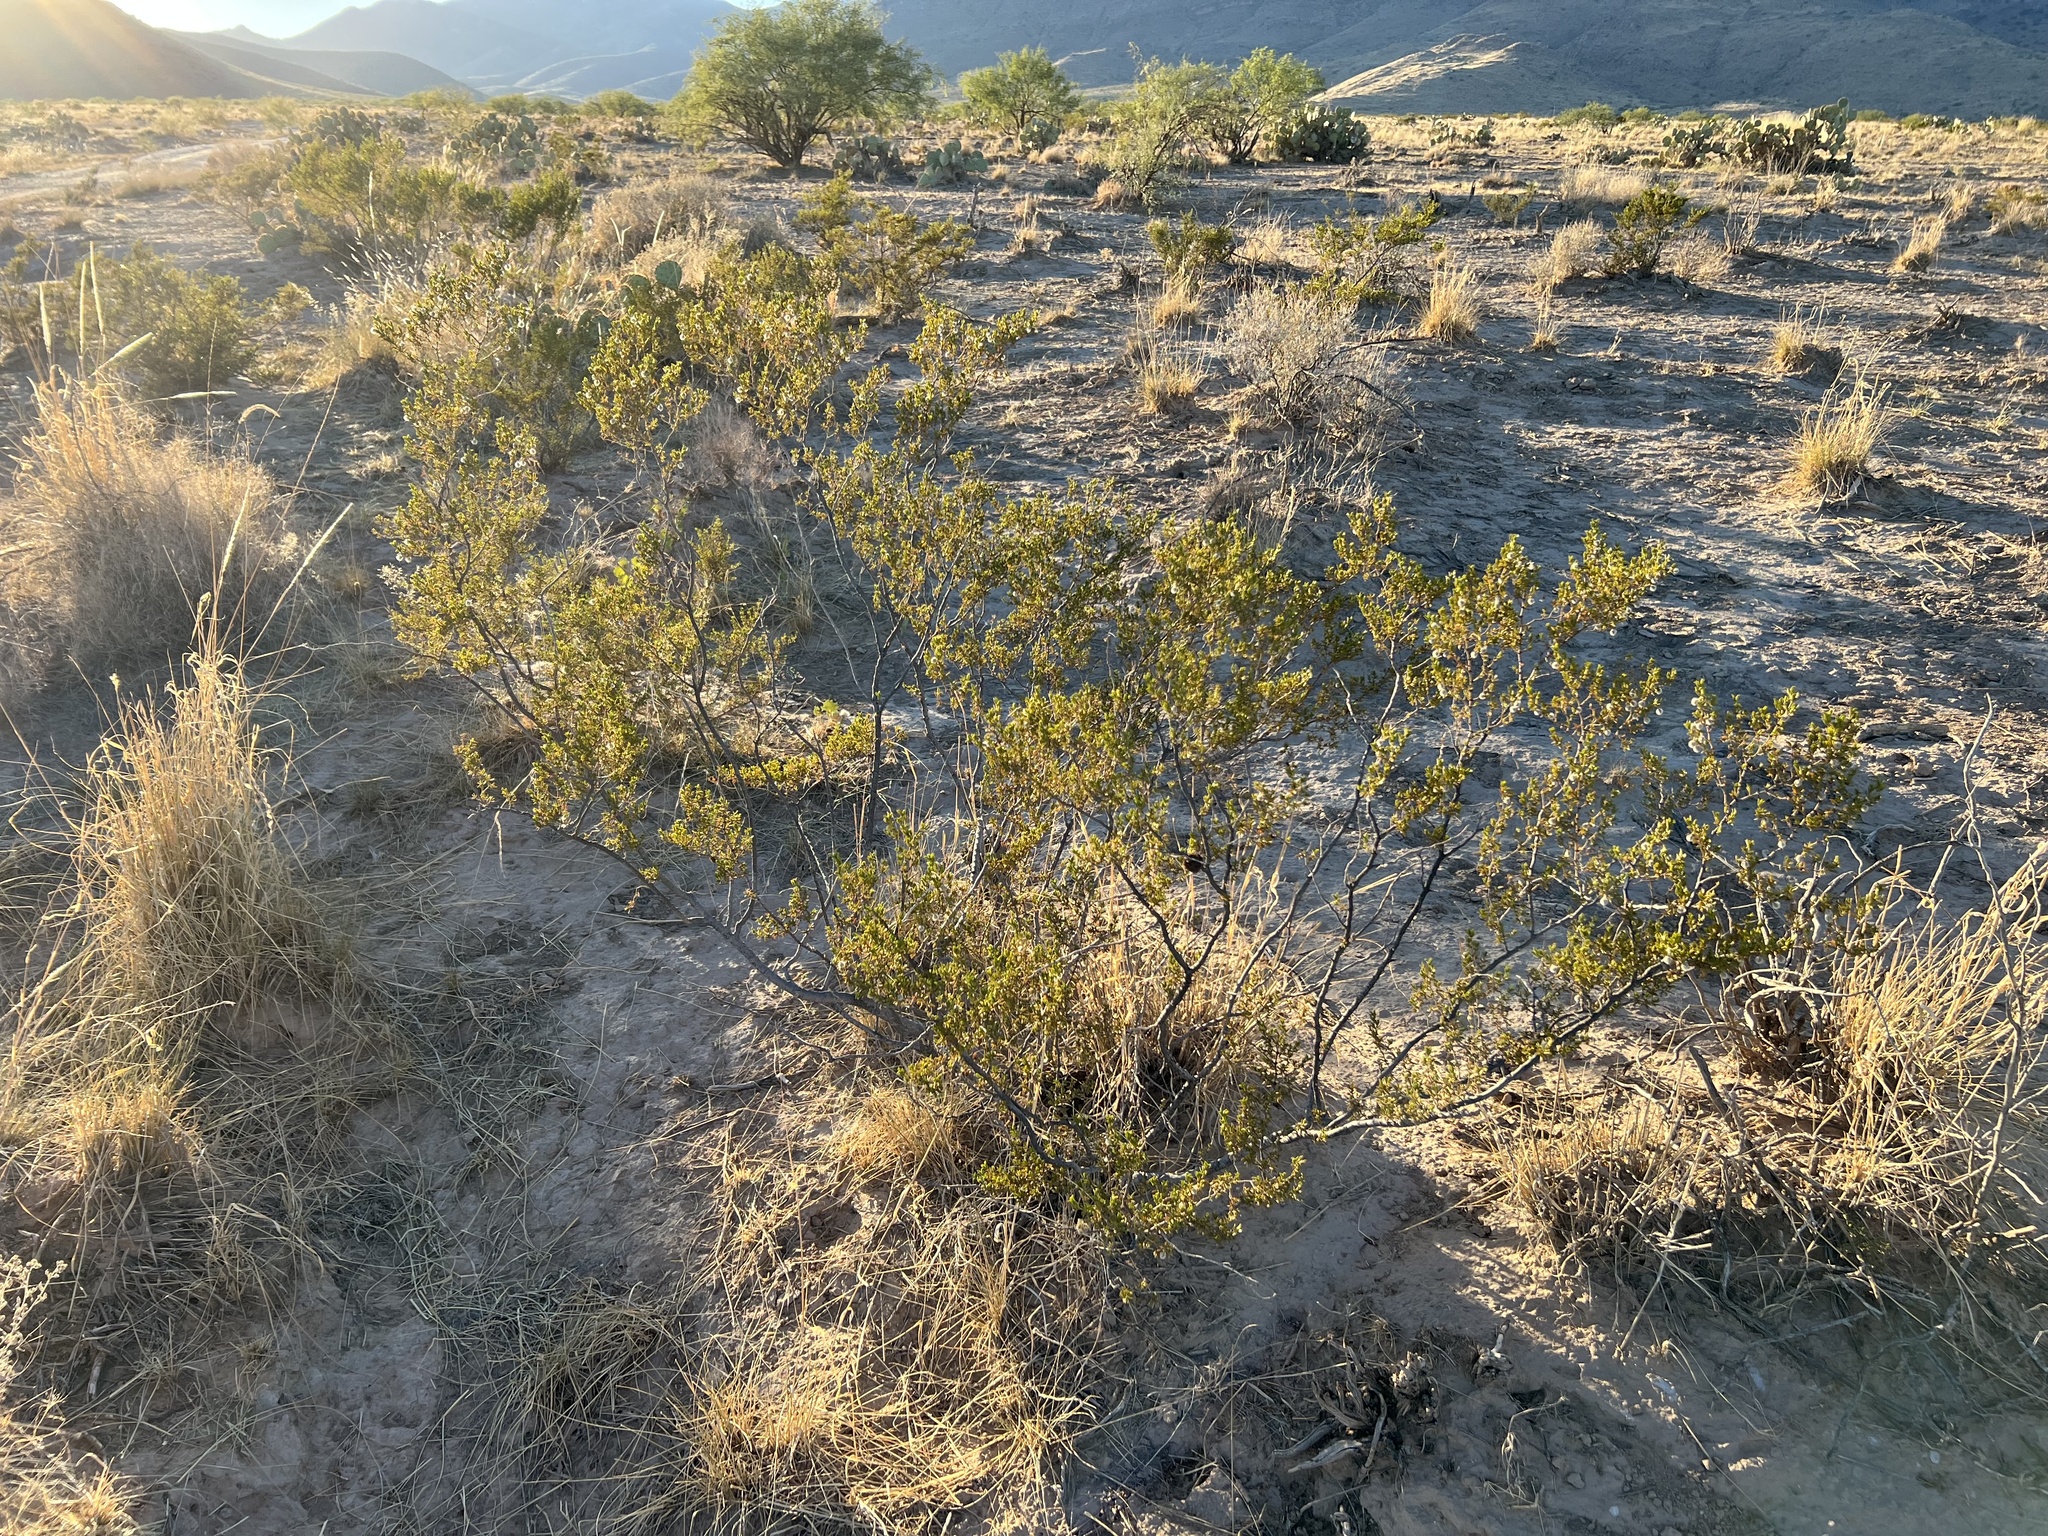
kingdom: Plantae
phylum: Tracheophyta
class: Magnoliopsida
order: Zygophyllales
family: Zygophyllaceae
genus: Larrea
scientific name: Larrea tridentata
